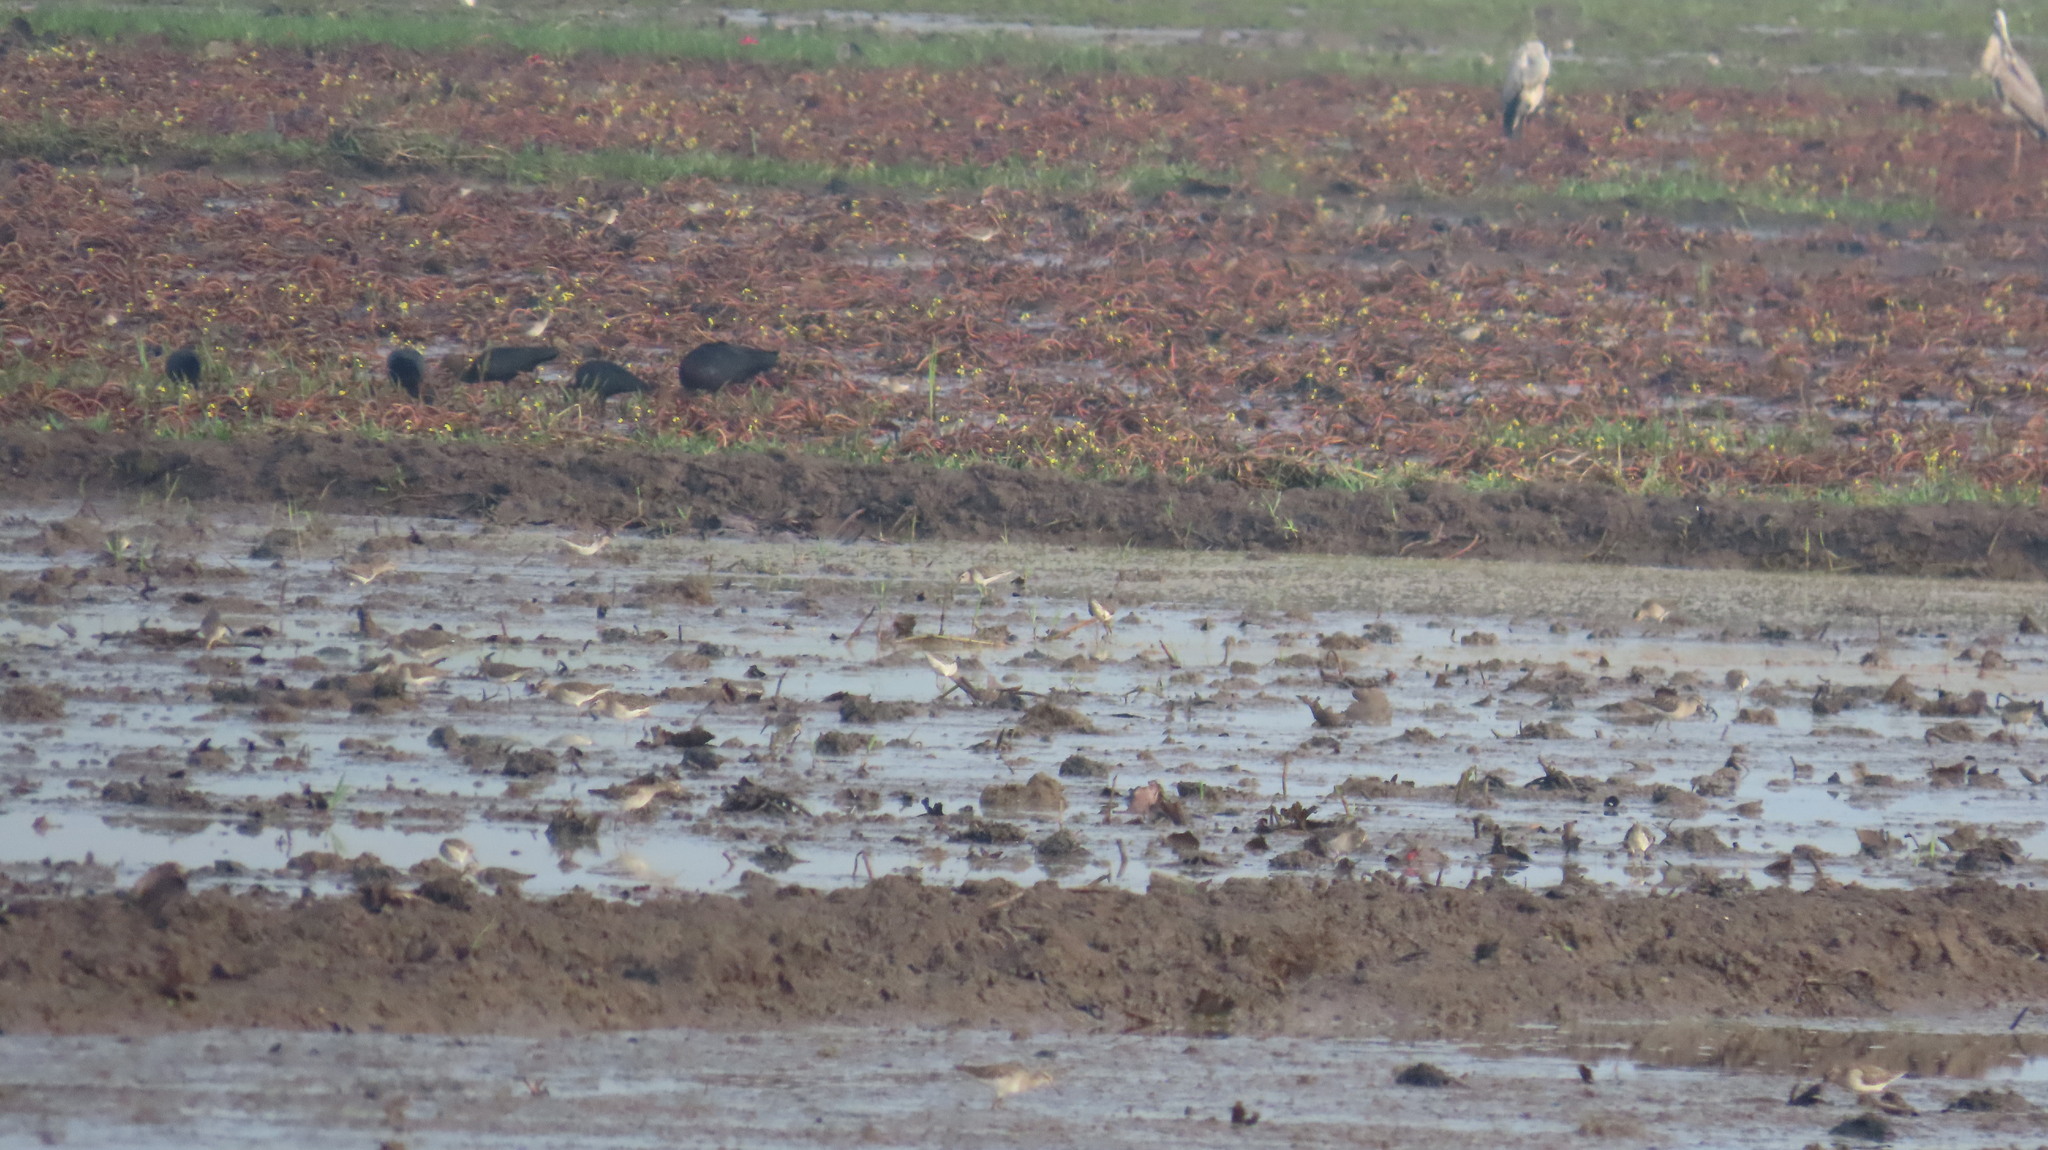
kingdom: Animalia
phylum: Chordata
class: Aves
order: Pelecaniformes
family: Threskiornithidae
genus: Plegadis
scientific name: Plegadis falcinellus
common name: Glossy ibis
